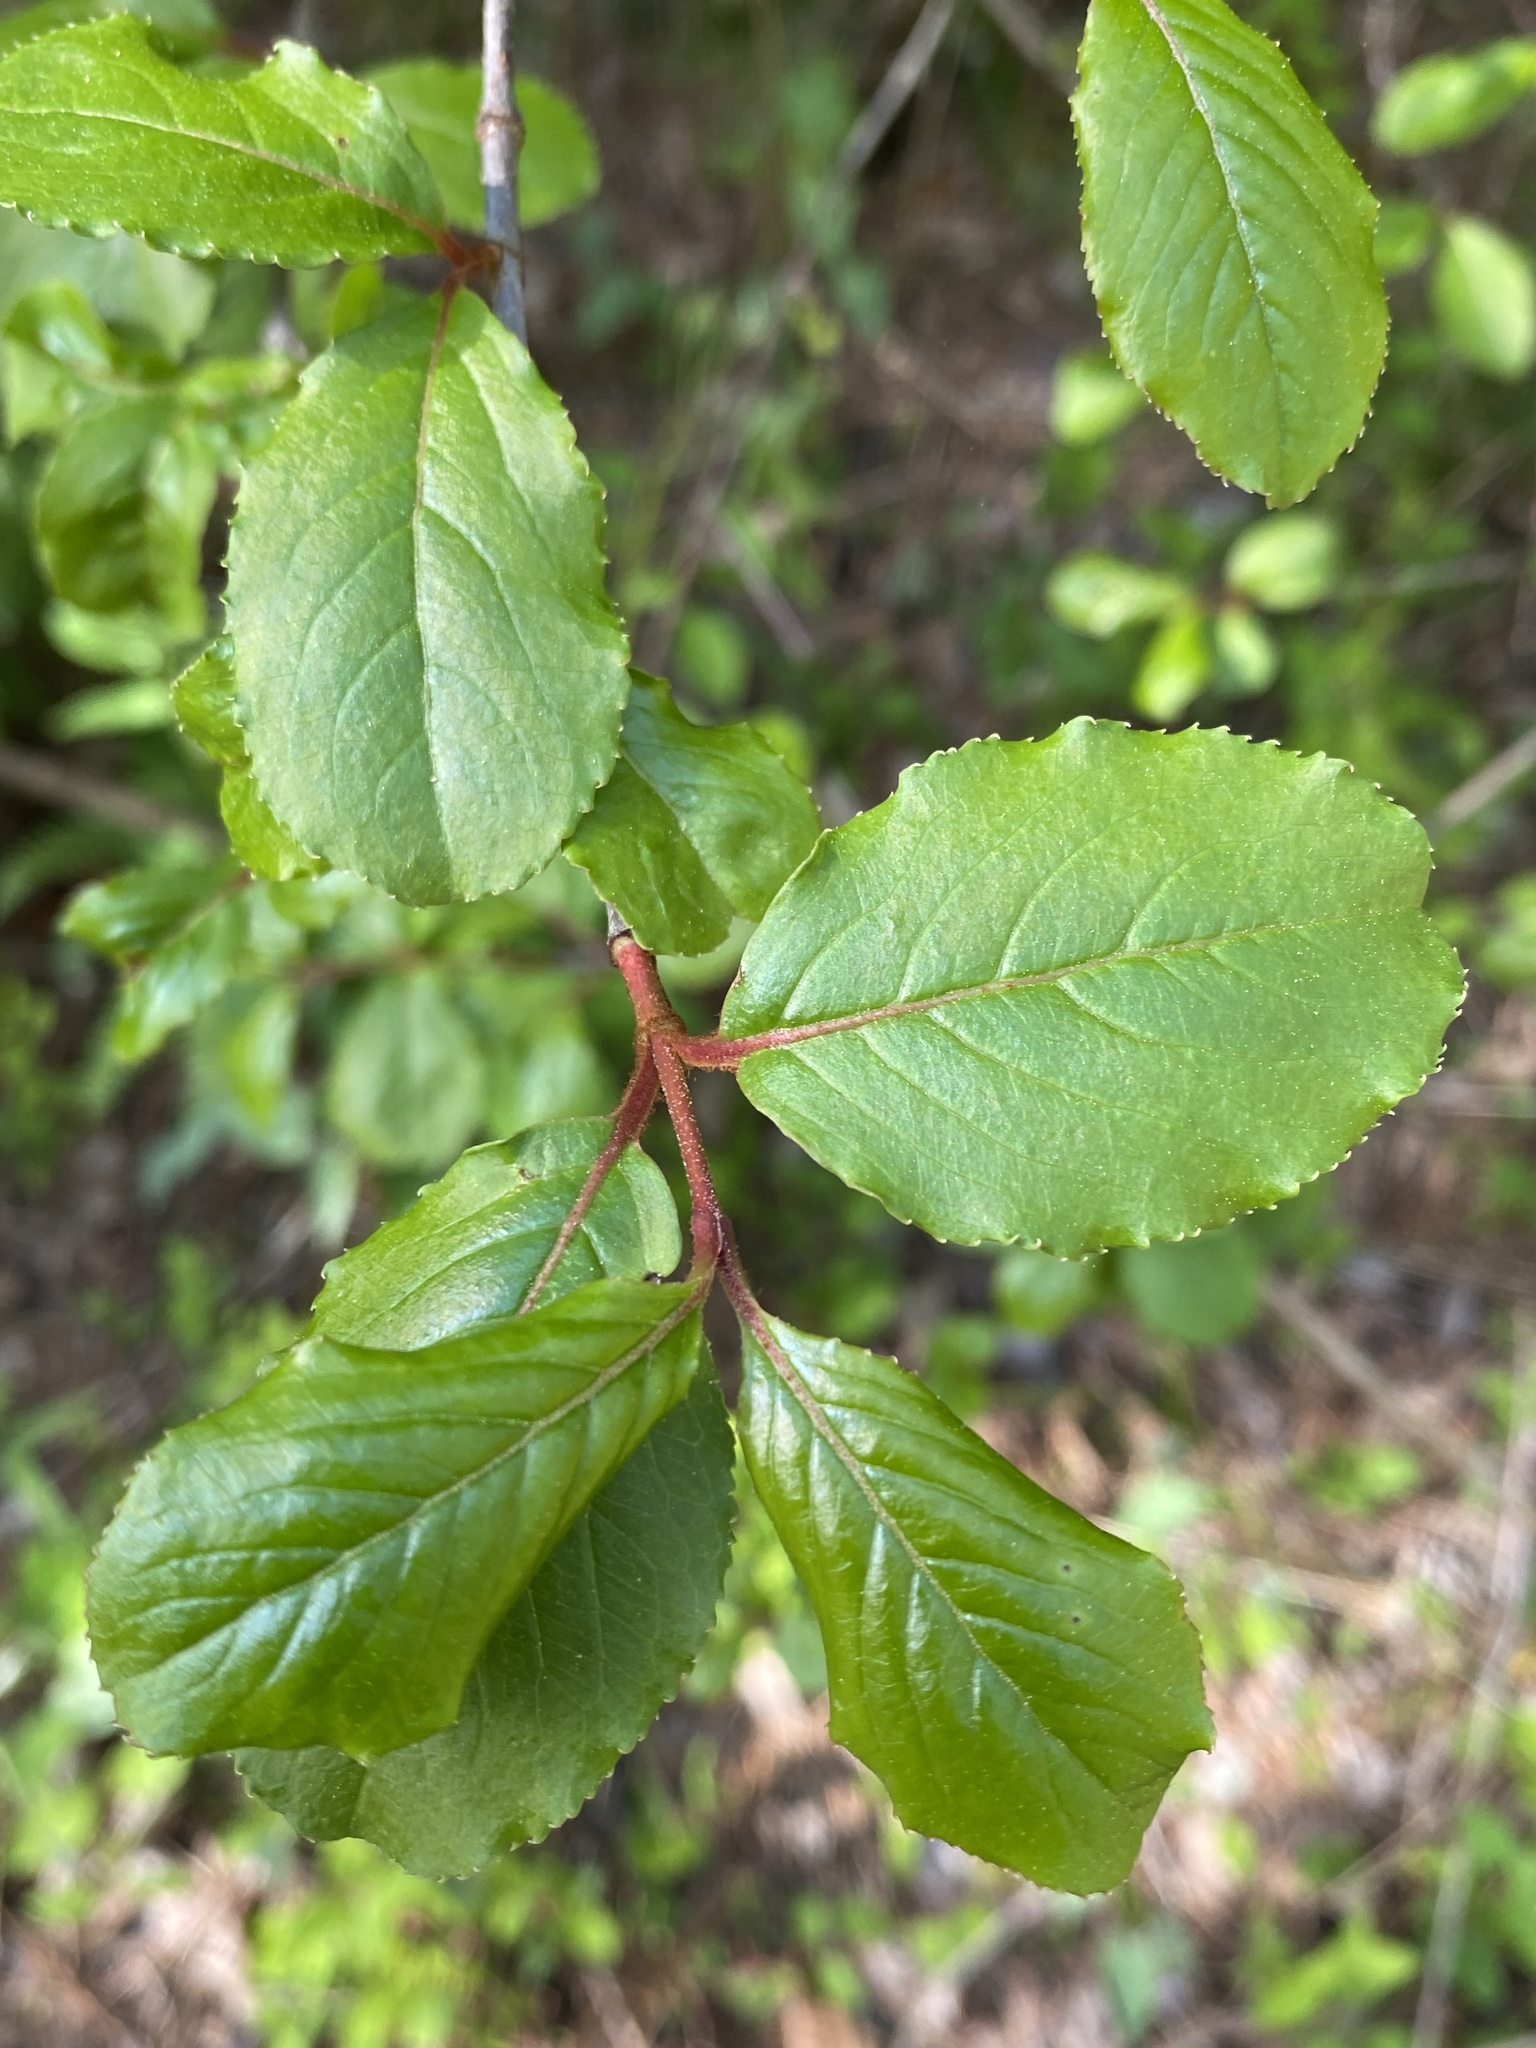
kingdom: Plantae
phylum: Tracheophyta
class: Magnoliopsida
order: Dipsacales
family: Viburnaceae
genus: Viburnum
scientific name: Viburnum rufidulum
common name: Blue haw
